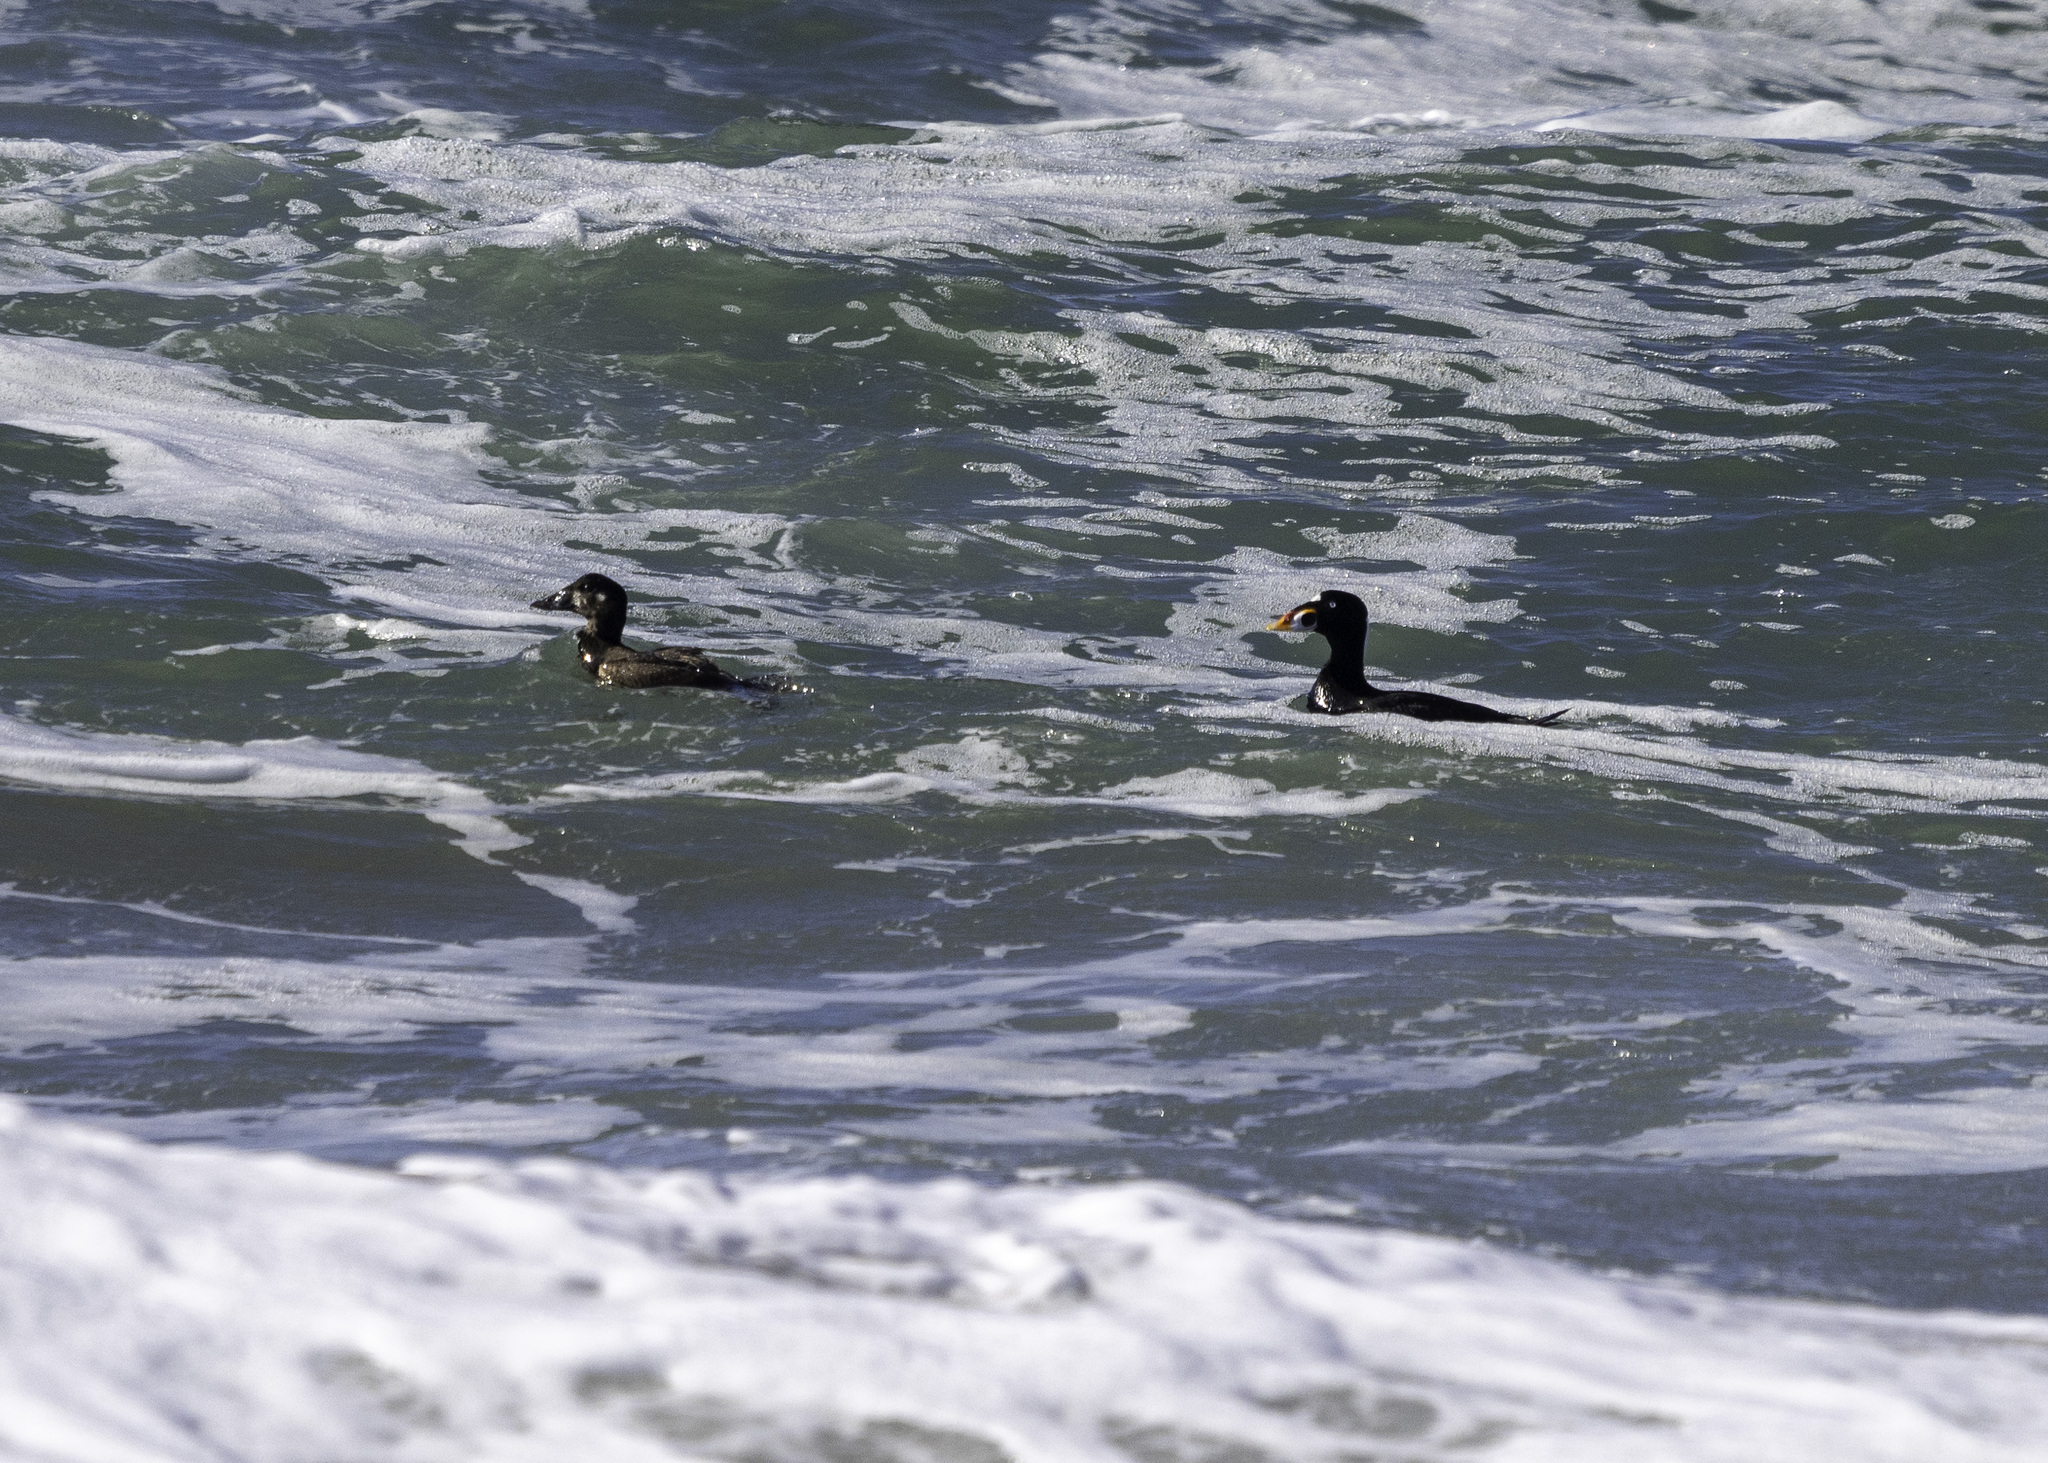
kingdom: Animalia
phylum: Chordata
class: Aves
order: Anseriformes
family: Anatidae
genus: Melanitta
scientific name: Melanitta perspicillata
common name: Surf scoter
